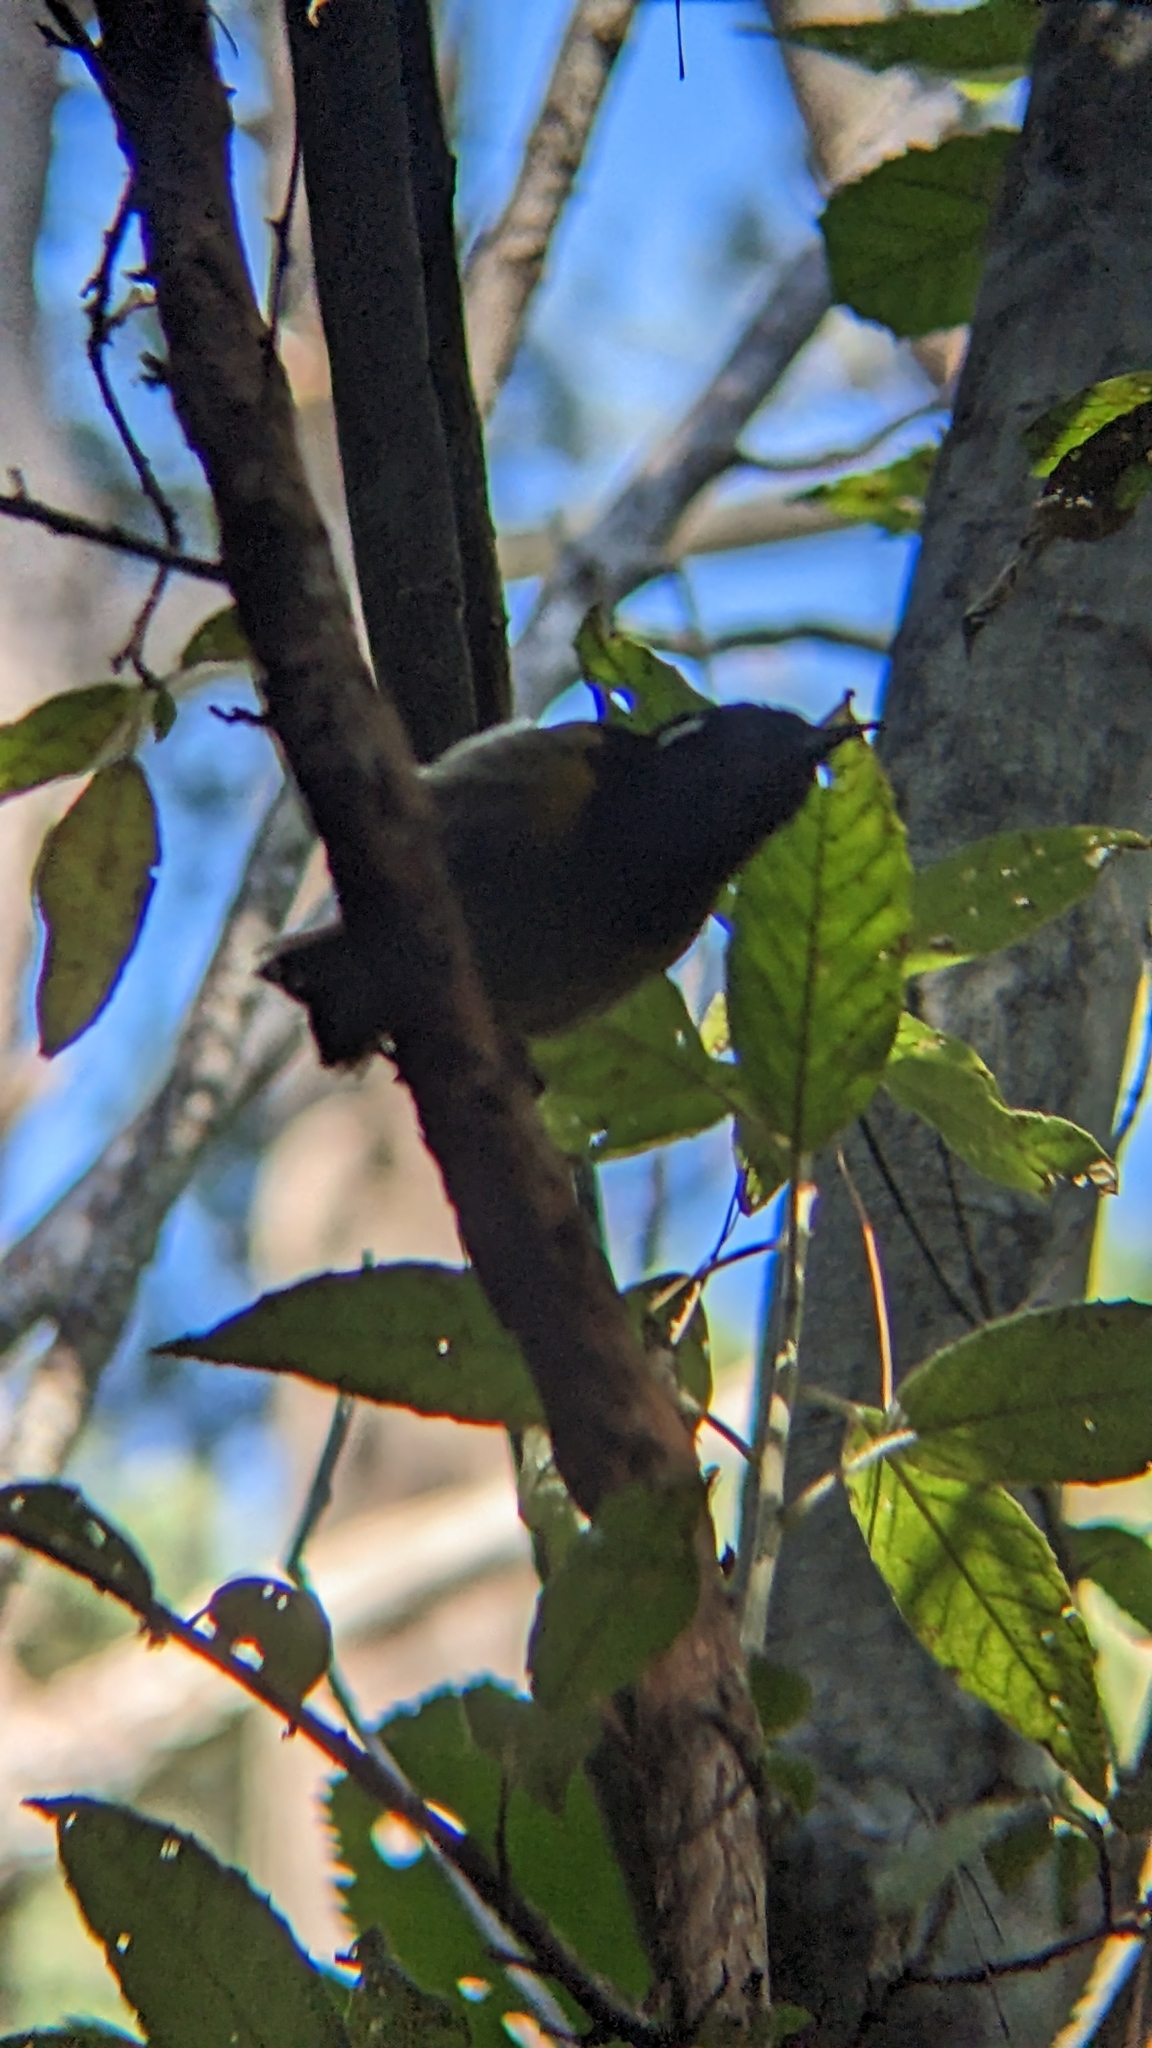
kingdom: Animalia
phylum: Chordata
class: Aves
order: Passeriformes
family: Notiomystidae
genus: Notiomystis
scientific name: Notiomystis cincta
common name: Stitchbird
